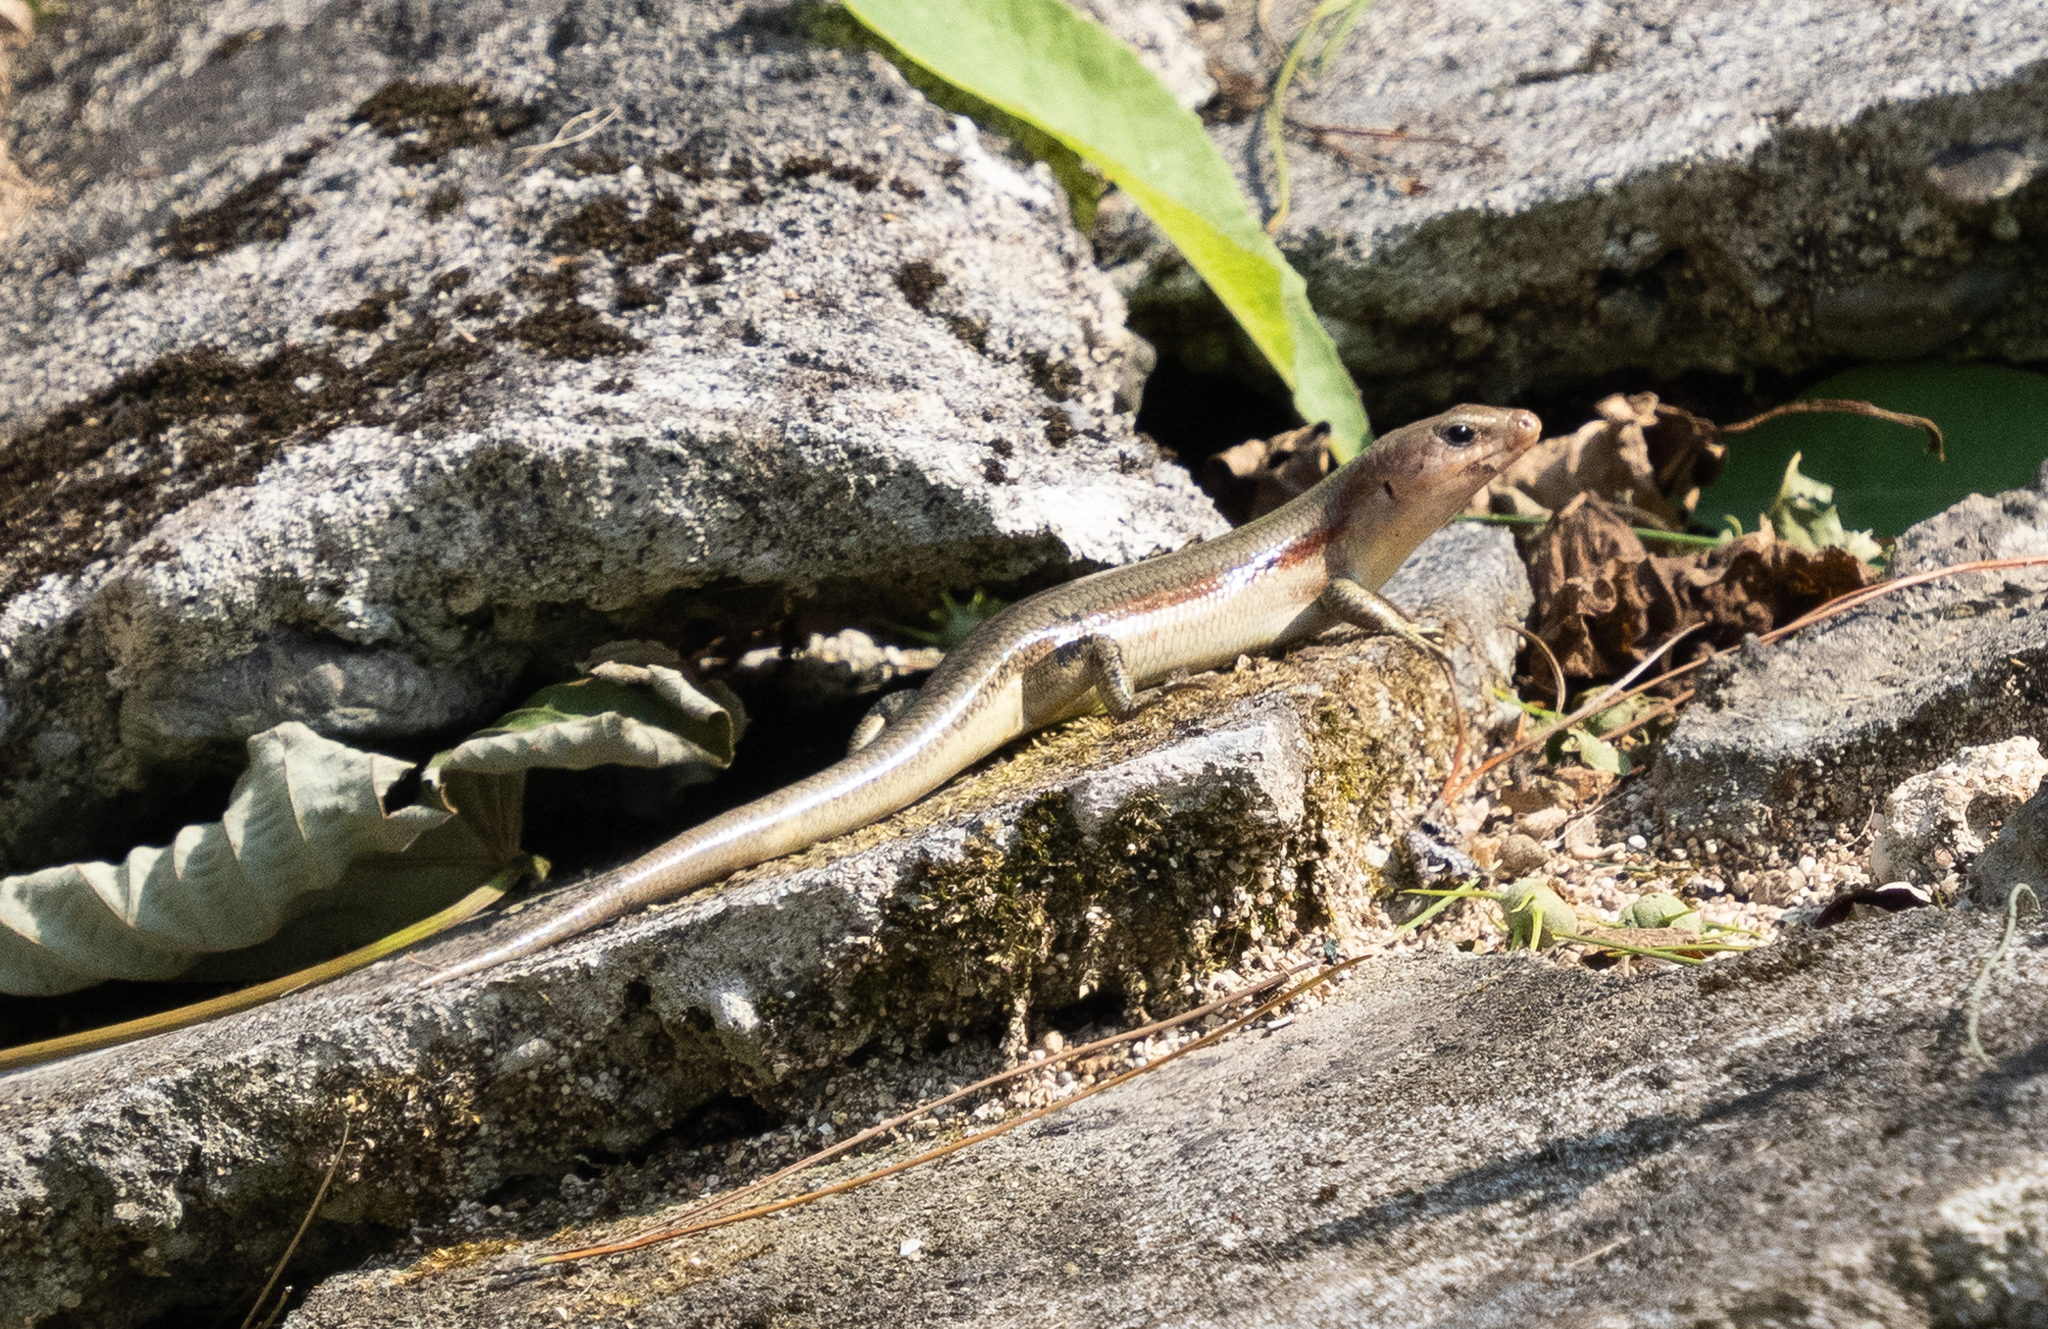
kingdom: Animalia
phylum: Chordata
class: Squamata
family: Scincidae
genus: Plestiodon
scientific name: Plestiodon marginatus
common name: Ousima skink
